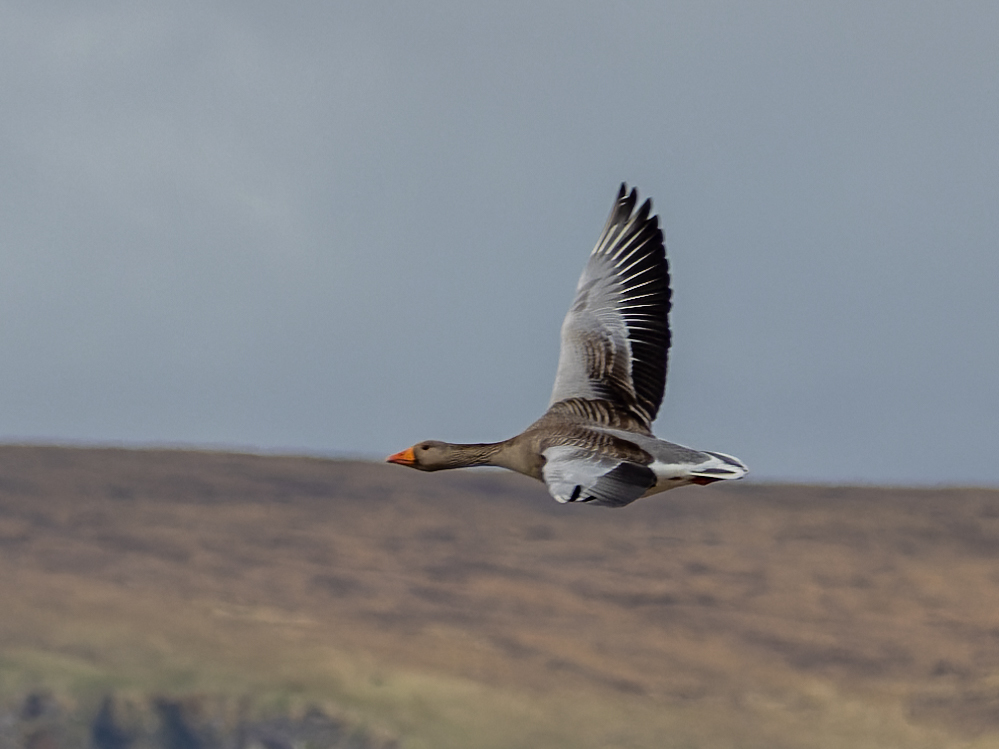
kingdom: Animalia
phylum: Chordata
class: Aves
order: Anseriformes
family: Anatidae
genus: Anser
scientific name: Anser anser
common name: Greylag goose
